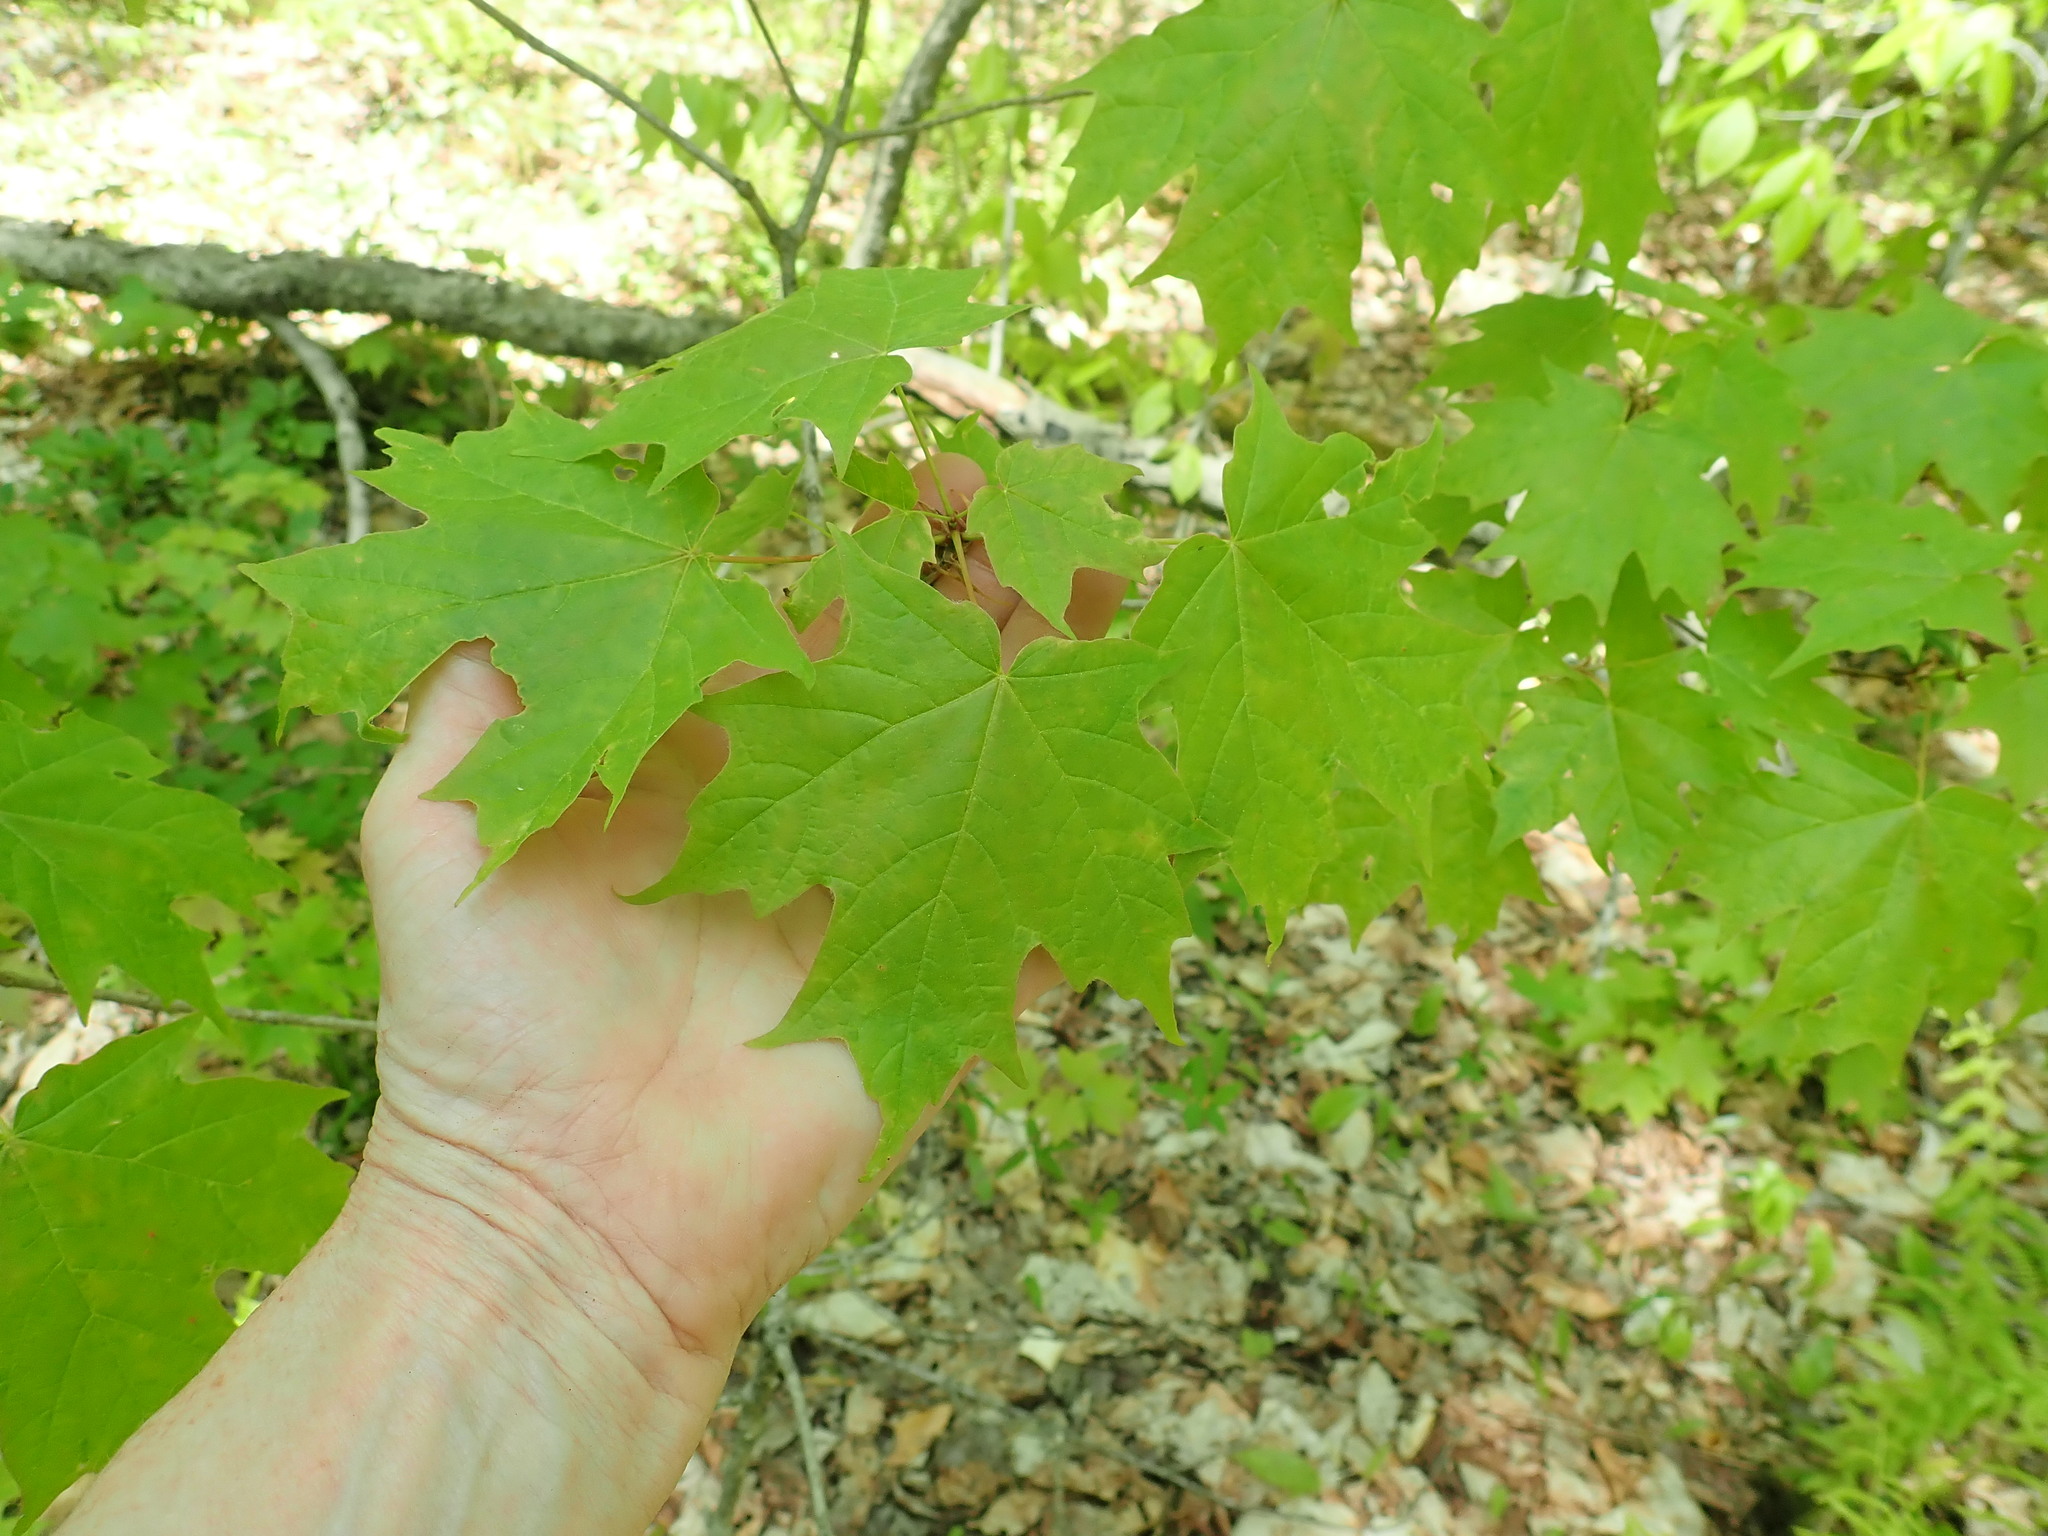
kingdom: Plantae
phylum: Tracheophyta
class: Magnoliopsida
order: Sapindales
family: Sapindaceae
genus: Acer
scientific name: Acer saccharum
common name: Sugar maple
